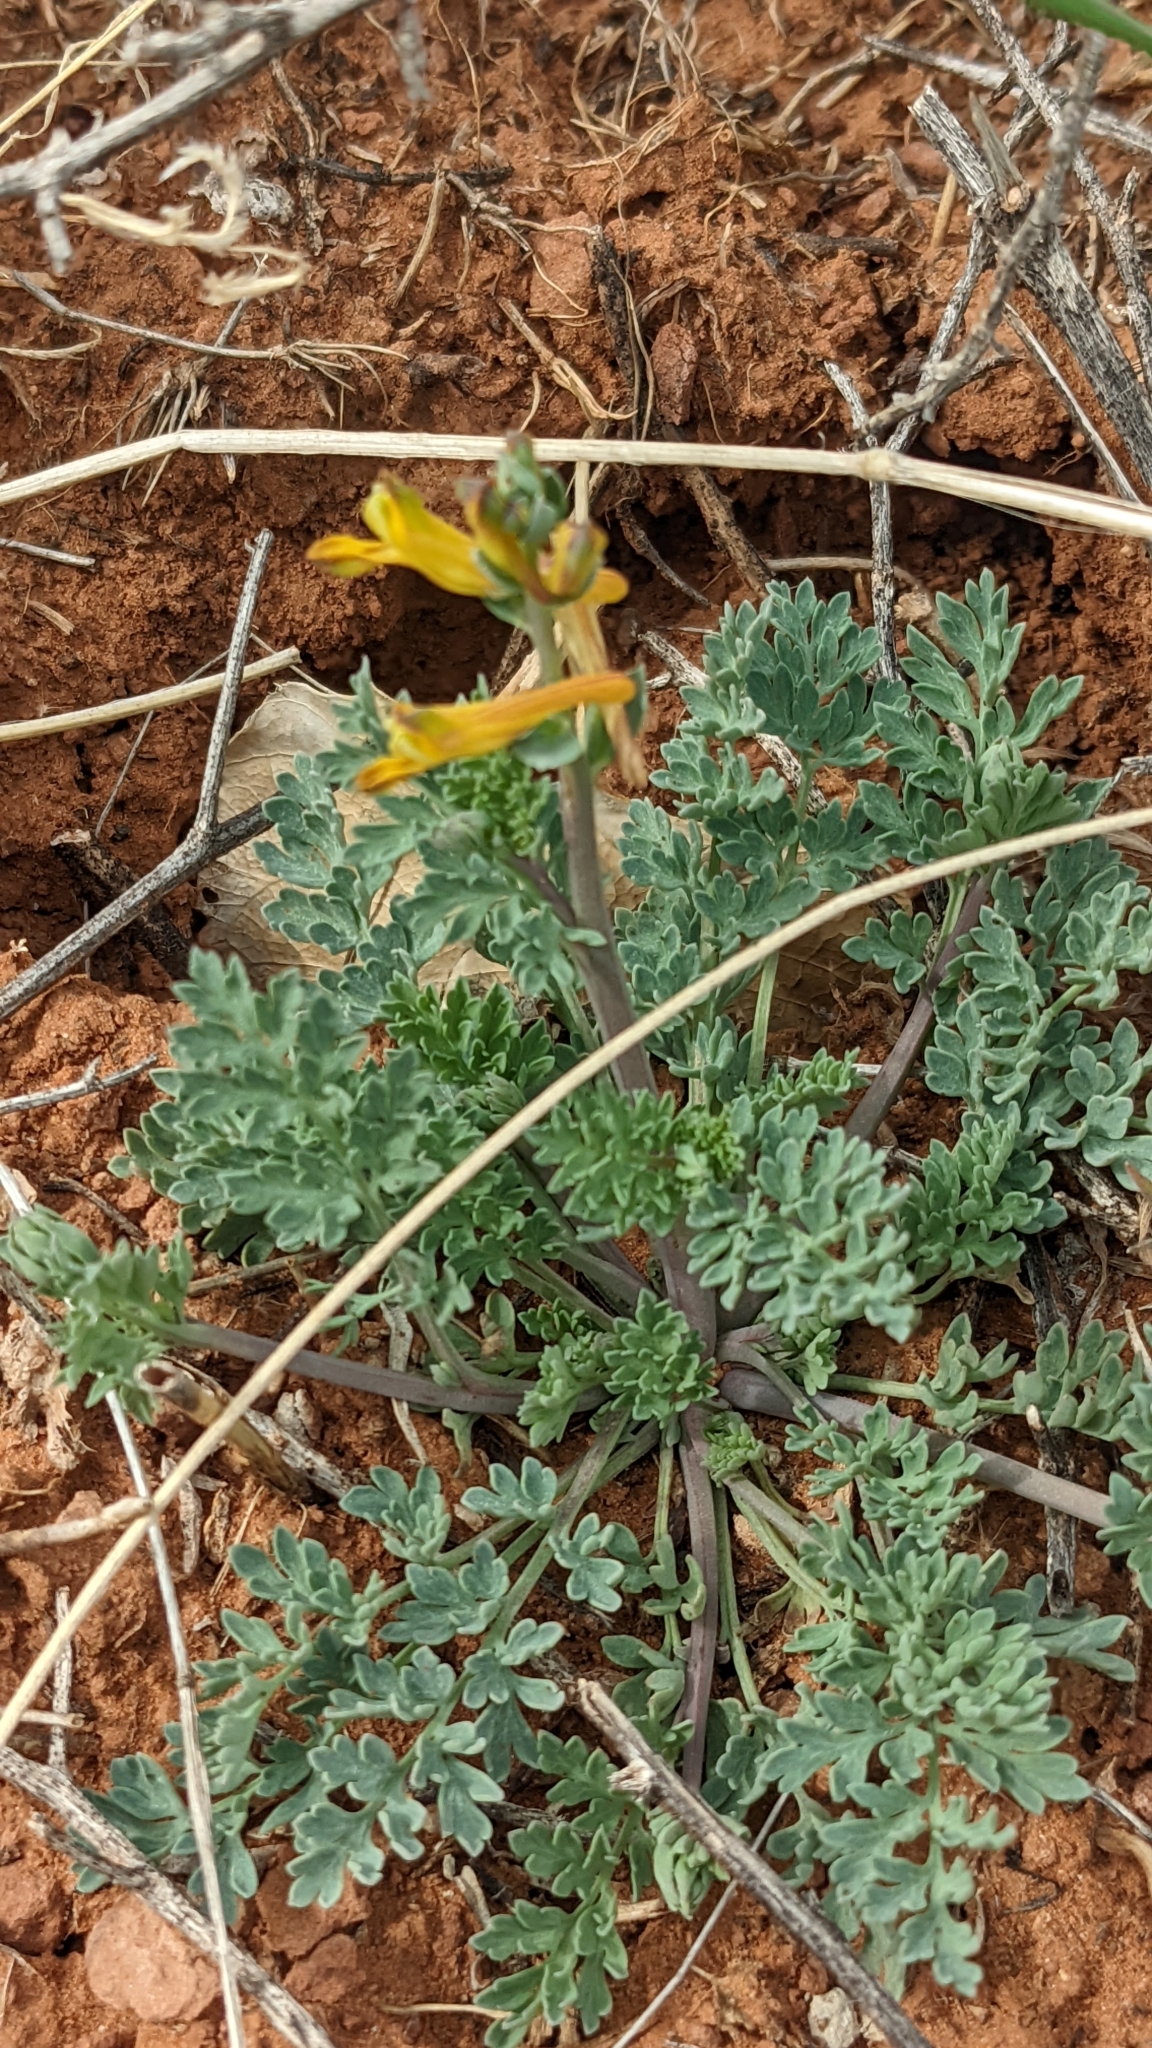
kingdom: Plantae
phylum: Tracheophyta
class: Magnoliopsida
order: Ranunculales
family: Papaveraceae
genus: Corydalis
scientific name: Corydalis aurea
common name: Golden corydalis
